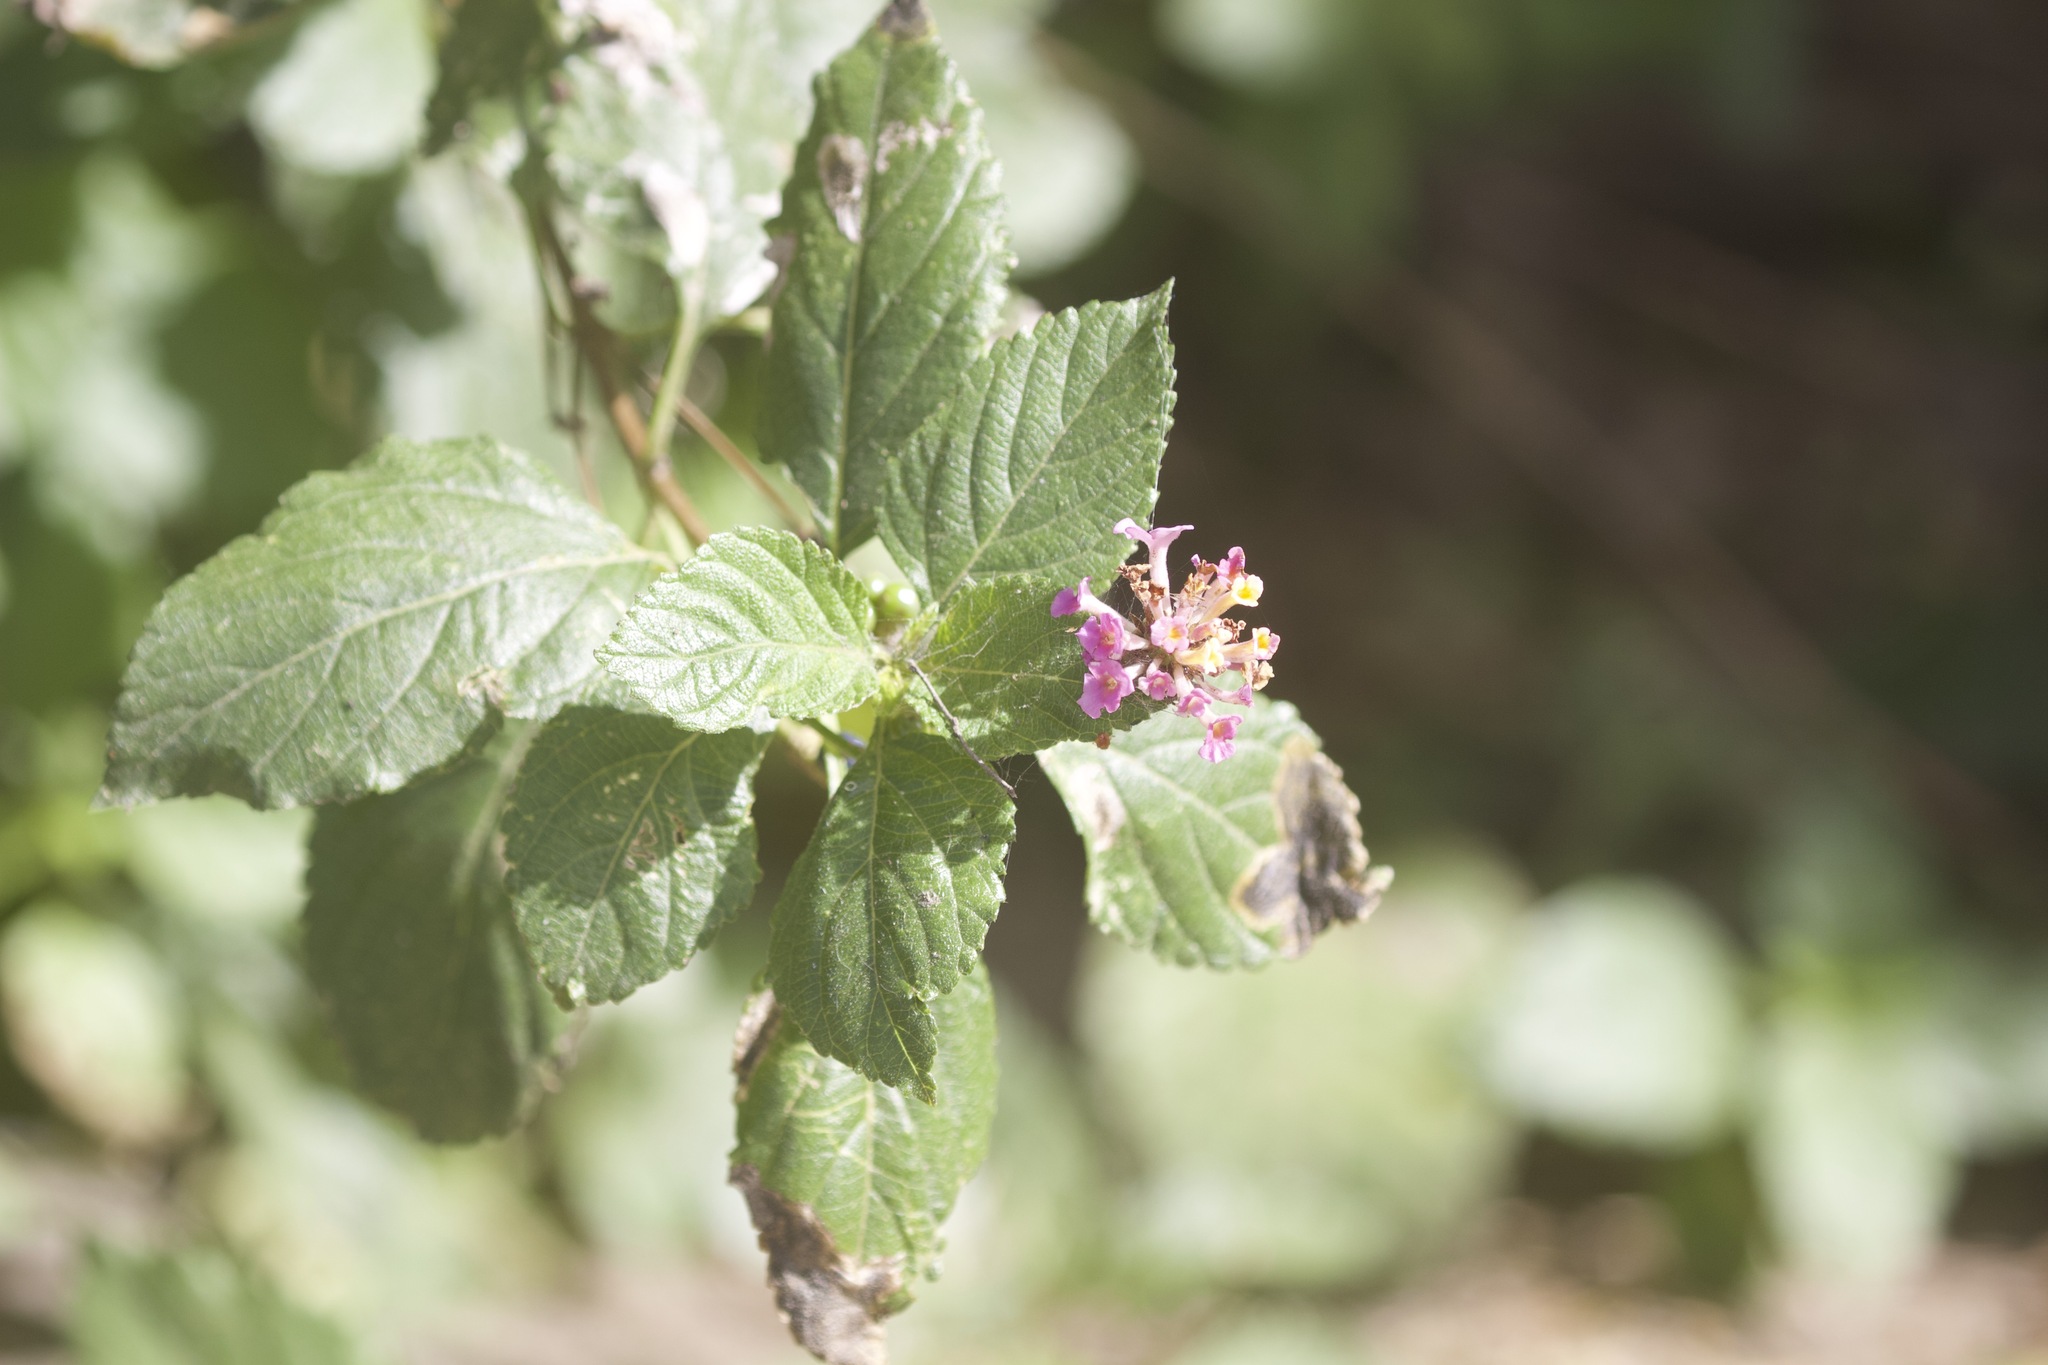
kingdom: Plantae
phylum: Tracheophyta
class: Magnoliopsida
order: Lamiales
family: Verbenaceae
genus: Lantana
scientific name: Lantana strigocamara
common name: Lantana
